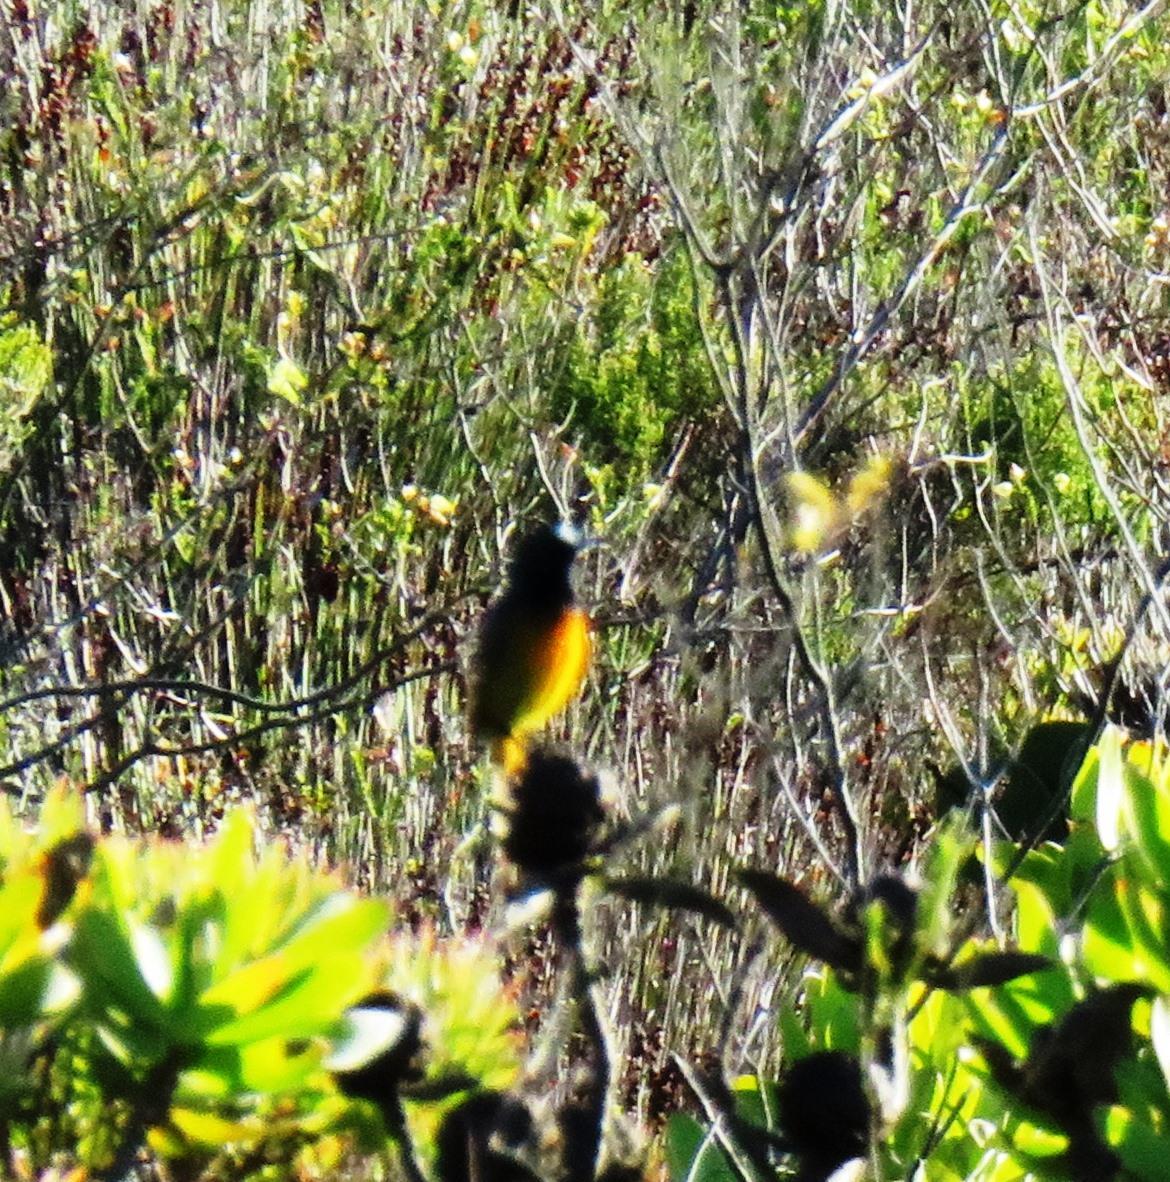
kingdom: Animalia
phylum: Chordata
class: Aves
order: Passeriformes
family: Nectariniidae
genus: Anthobaphes
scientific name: Anthobaphes violacea
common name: Orange-breasted sunbird
